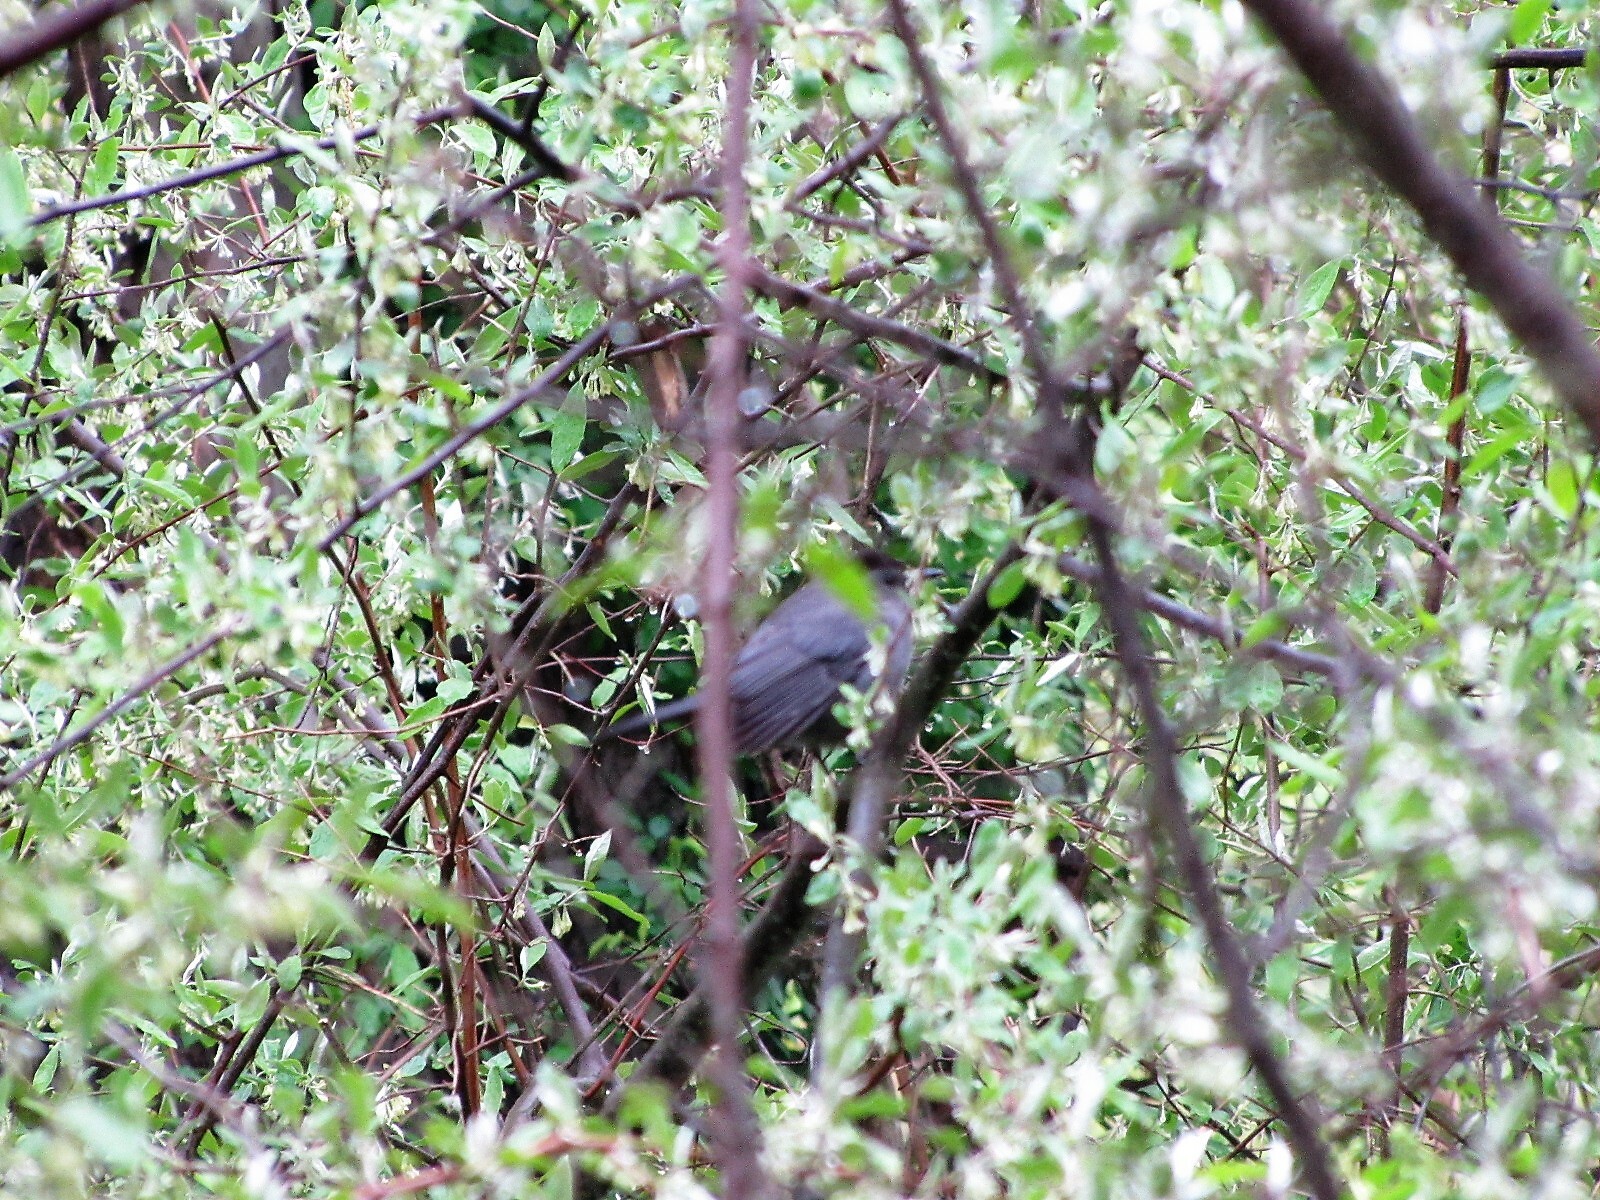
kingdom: Animalia
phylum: Chordata
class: Aves
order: Passeriformes
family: Mimidae
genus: Dumetella
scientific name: Dumetella carolinensis
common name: Gray catbird
